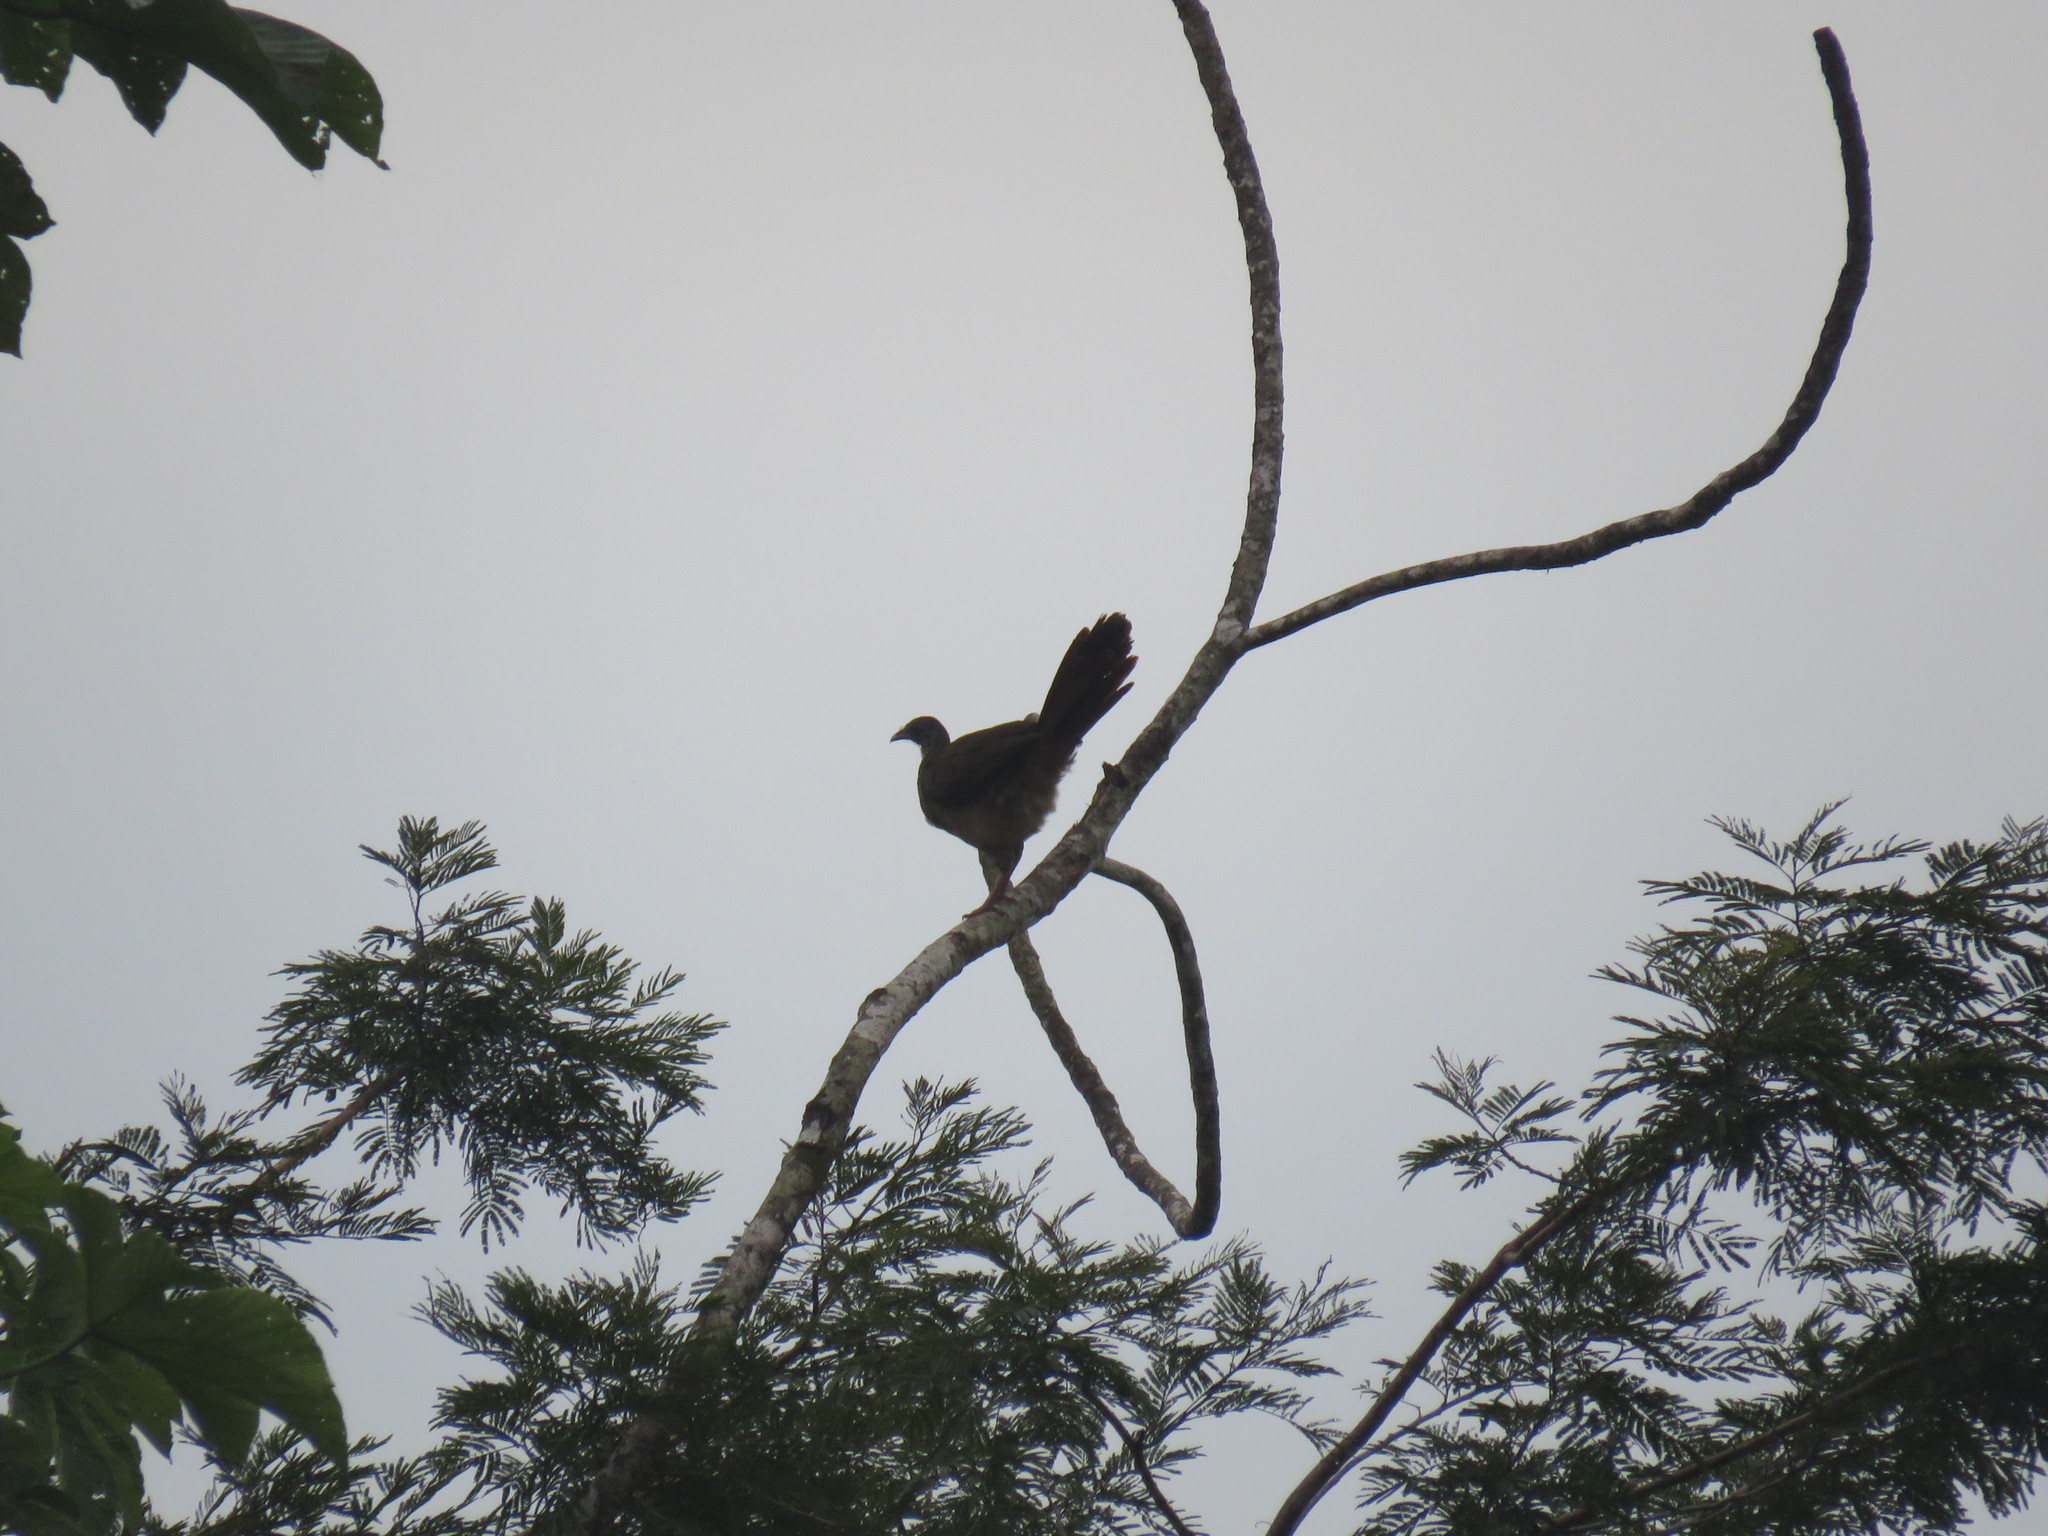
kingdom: Animalia
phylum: Chordata
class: Aves
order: Galliformes
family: Cracidae
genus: Ortalis
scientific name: Ortalis guttata
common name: Speckled chachalaca
